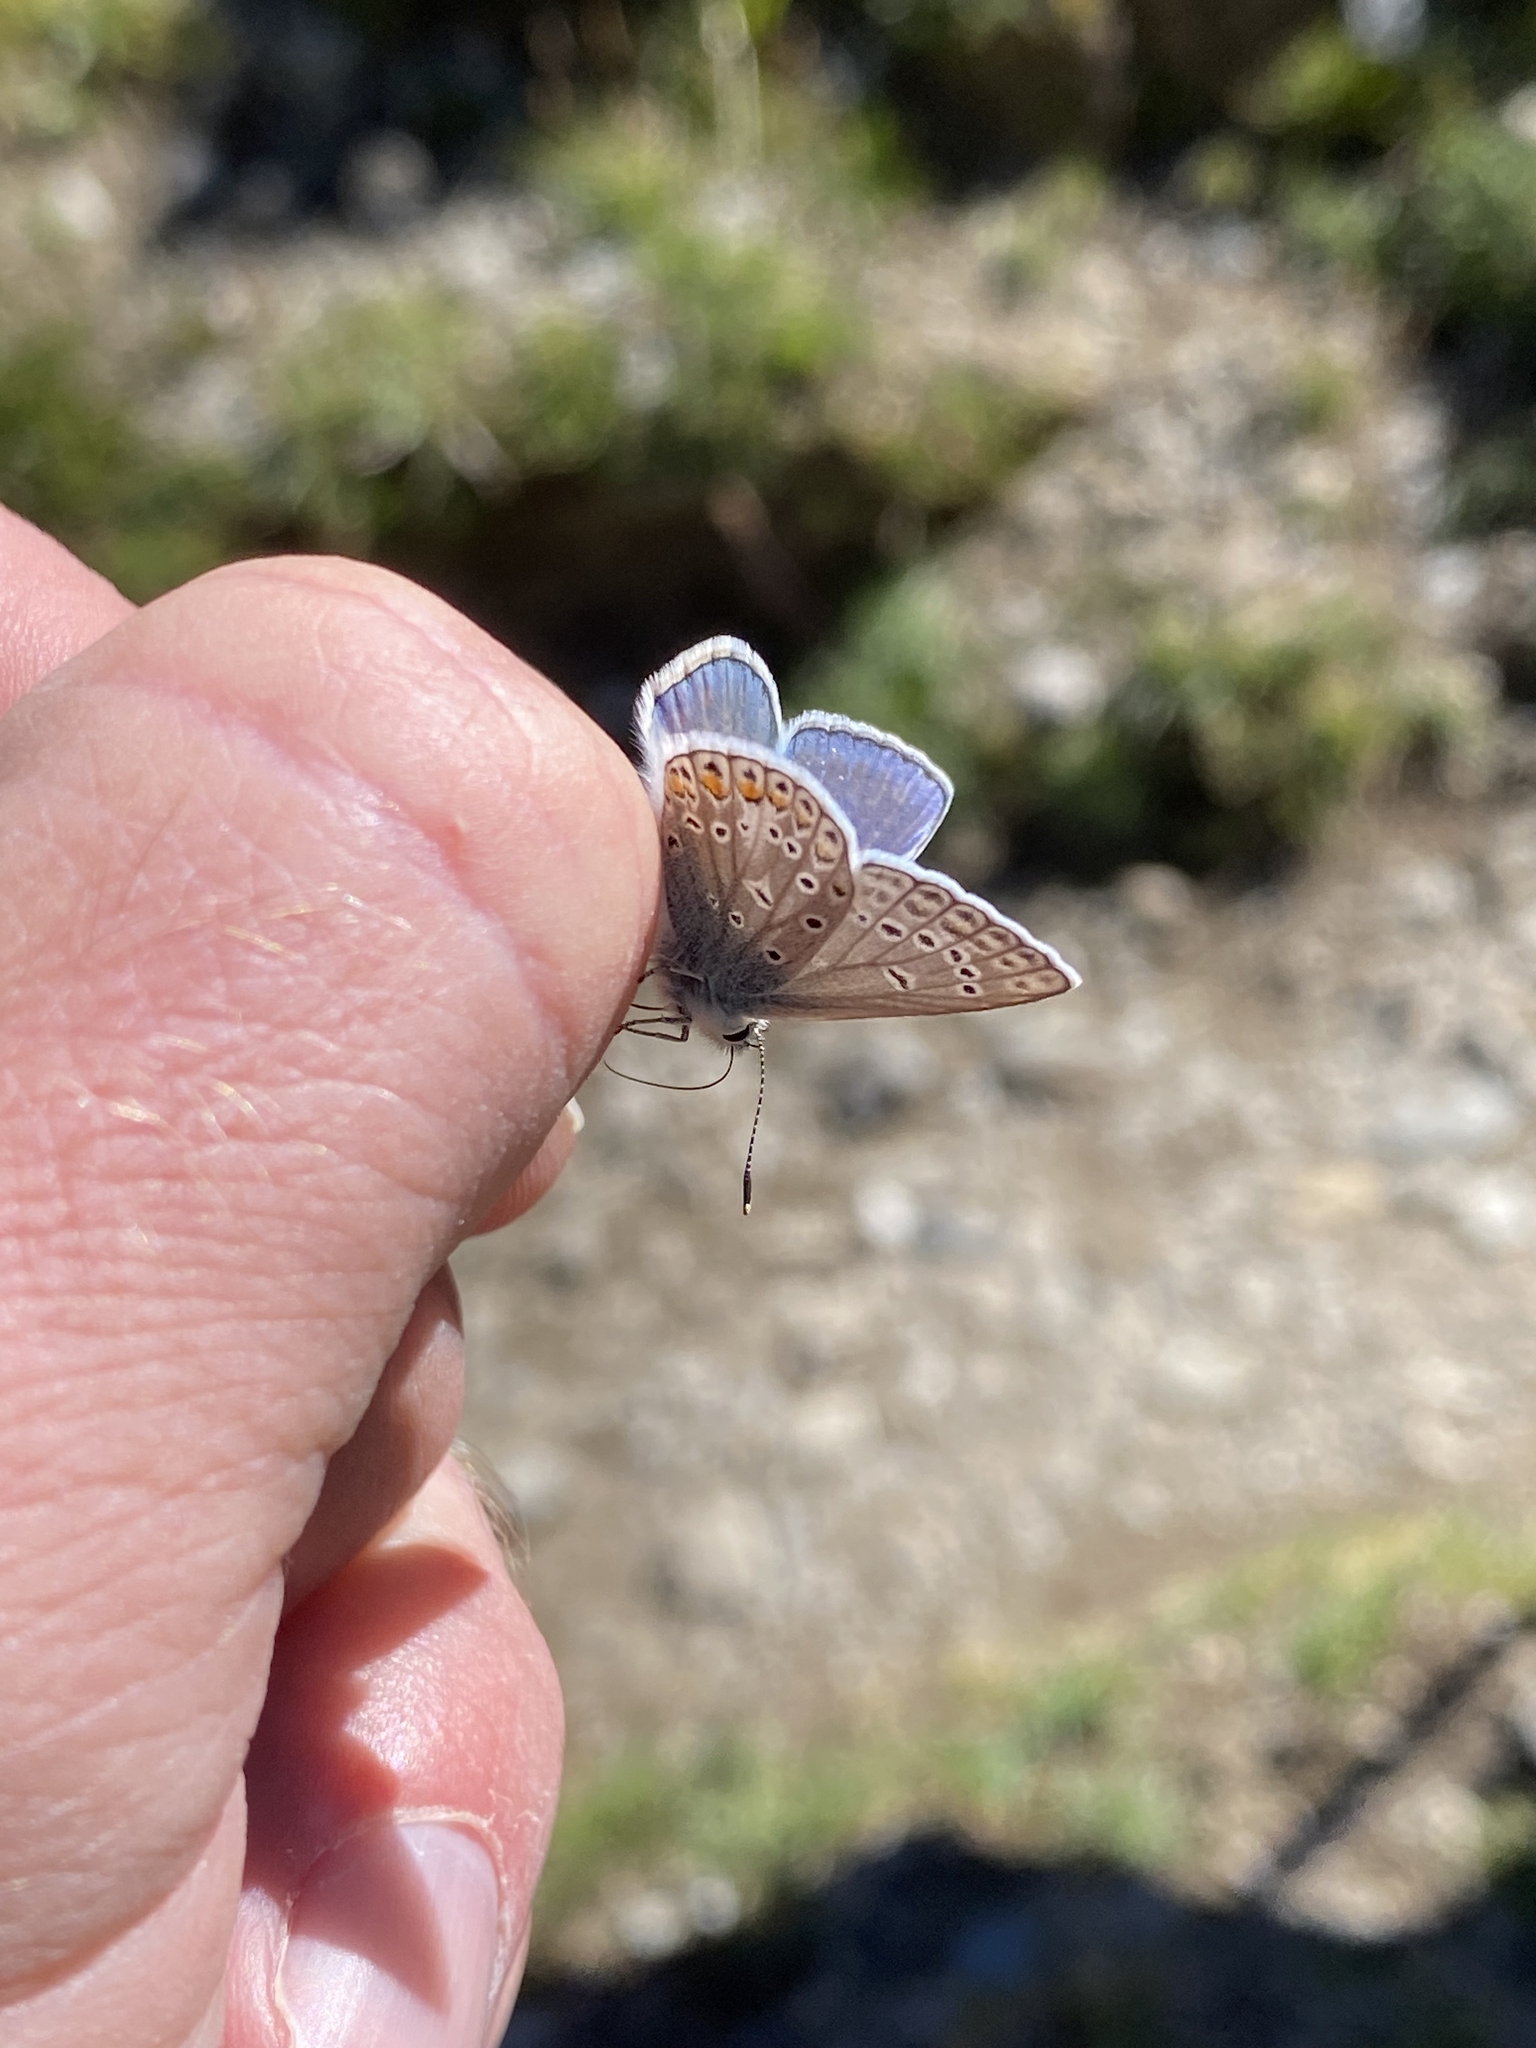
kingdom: Animalia
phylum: Arthropoda
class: Insecta
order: Lepidoptera
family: Lycaenidae
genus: Polyommatus
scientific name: Polyommatus thersites
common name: Chapman's blue
